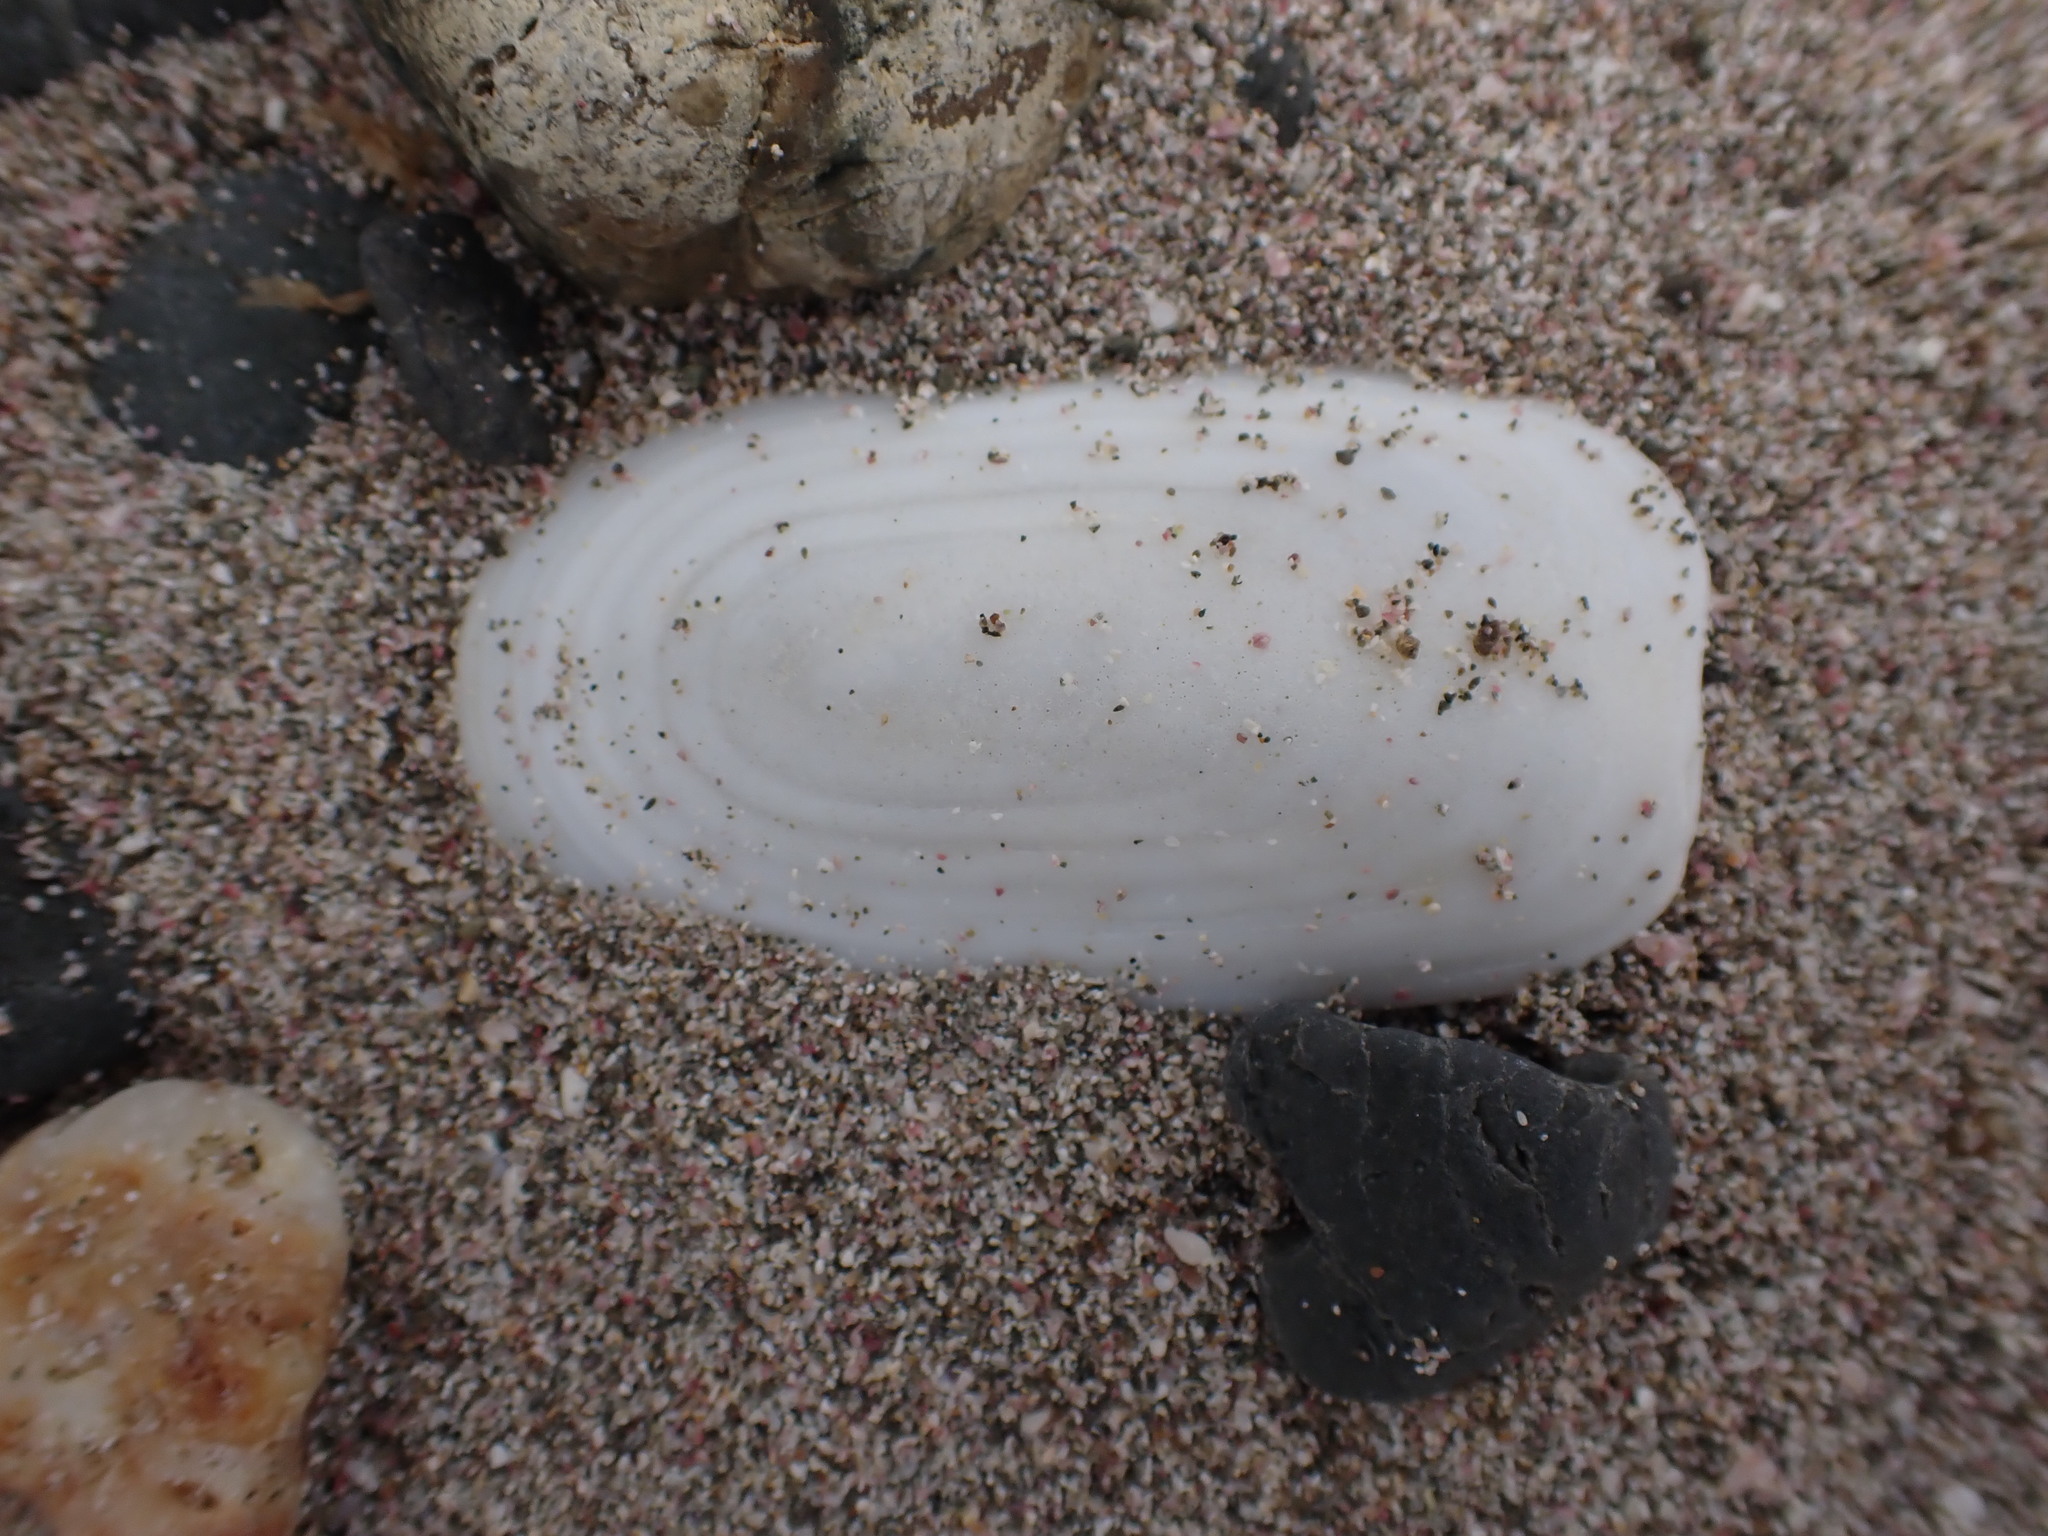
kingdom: Animalia
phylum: Mollusca
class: Gastropoda
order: Lepetellida
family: Fissurellidae
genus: Scutus
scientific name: Scutus breviculus
